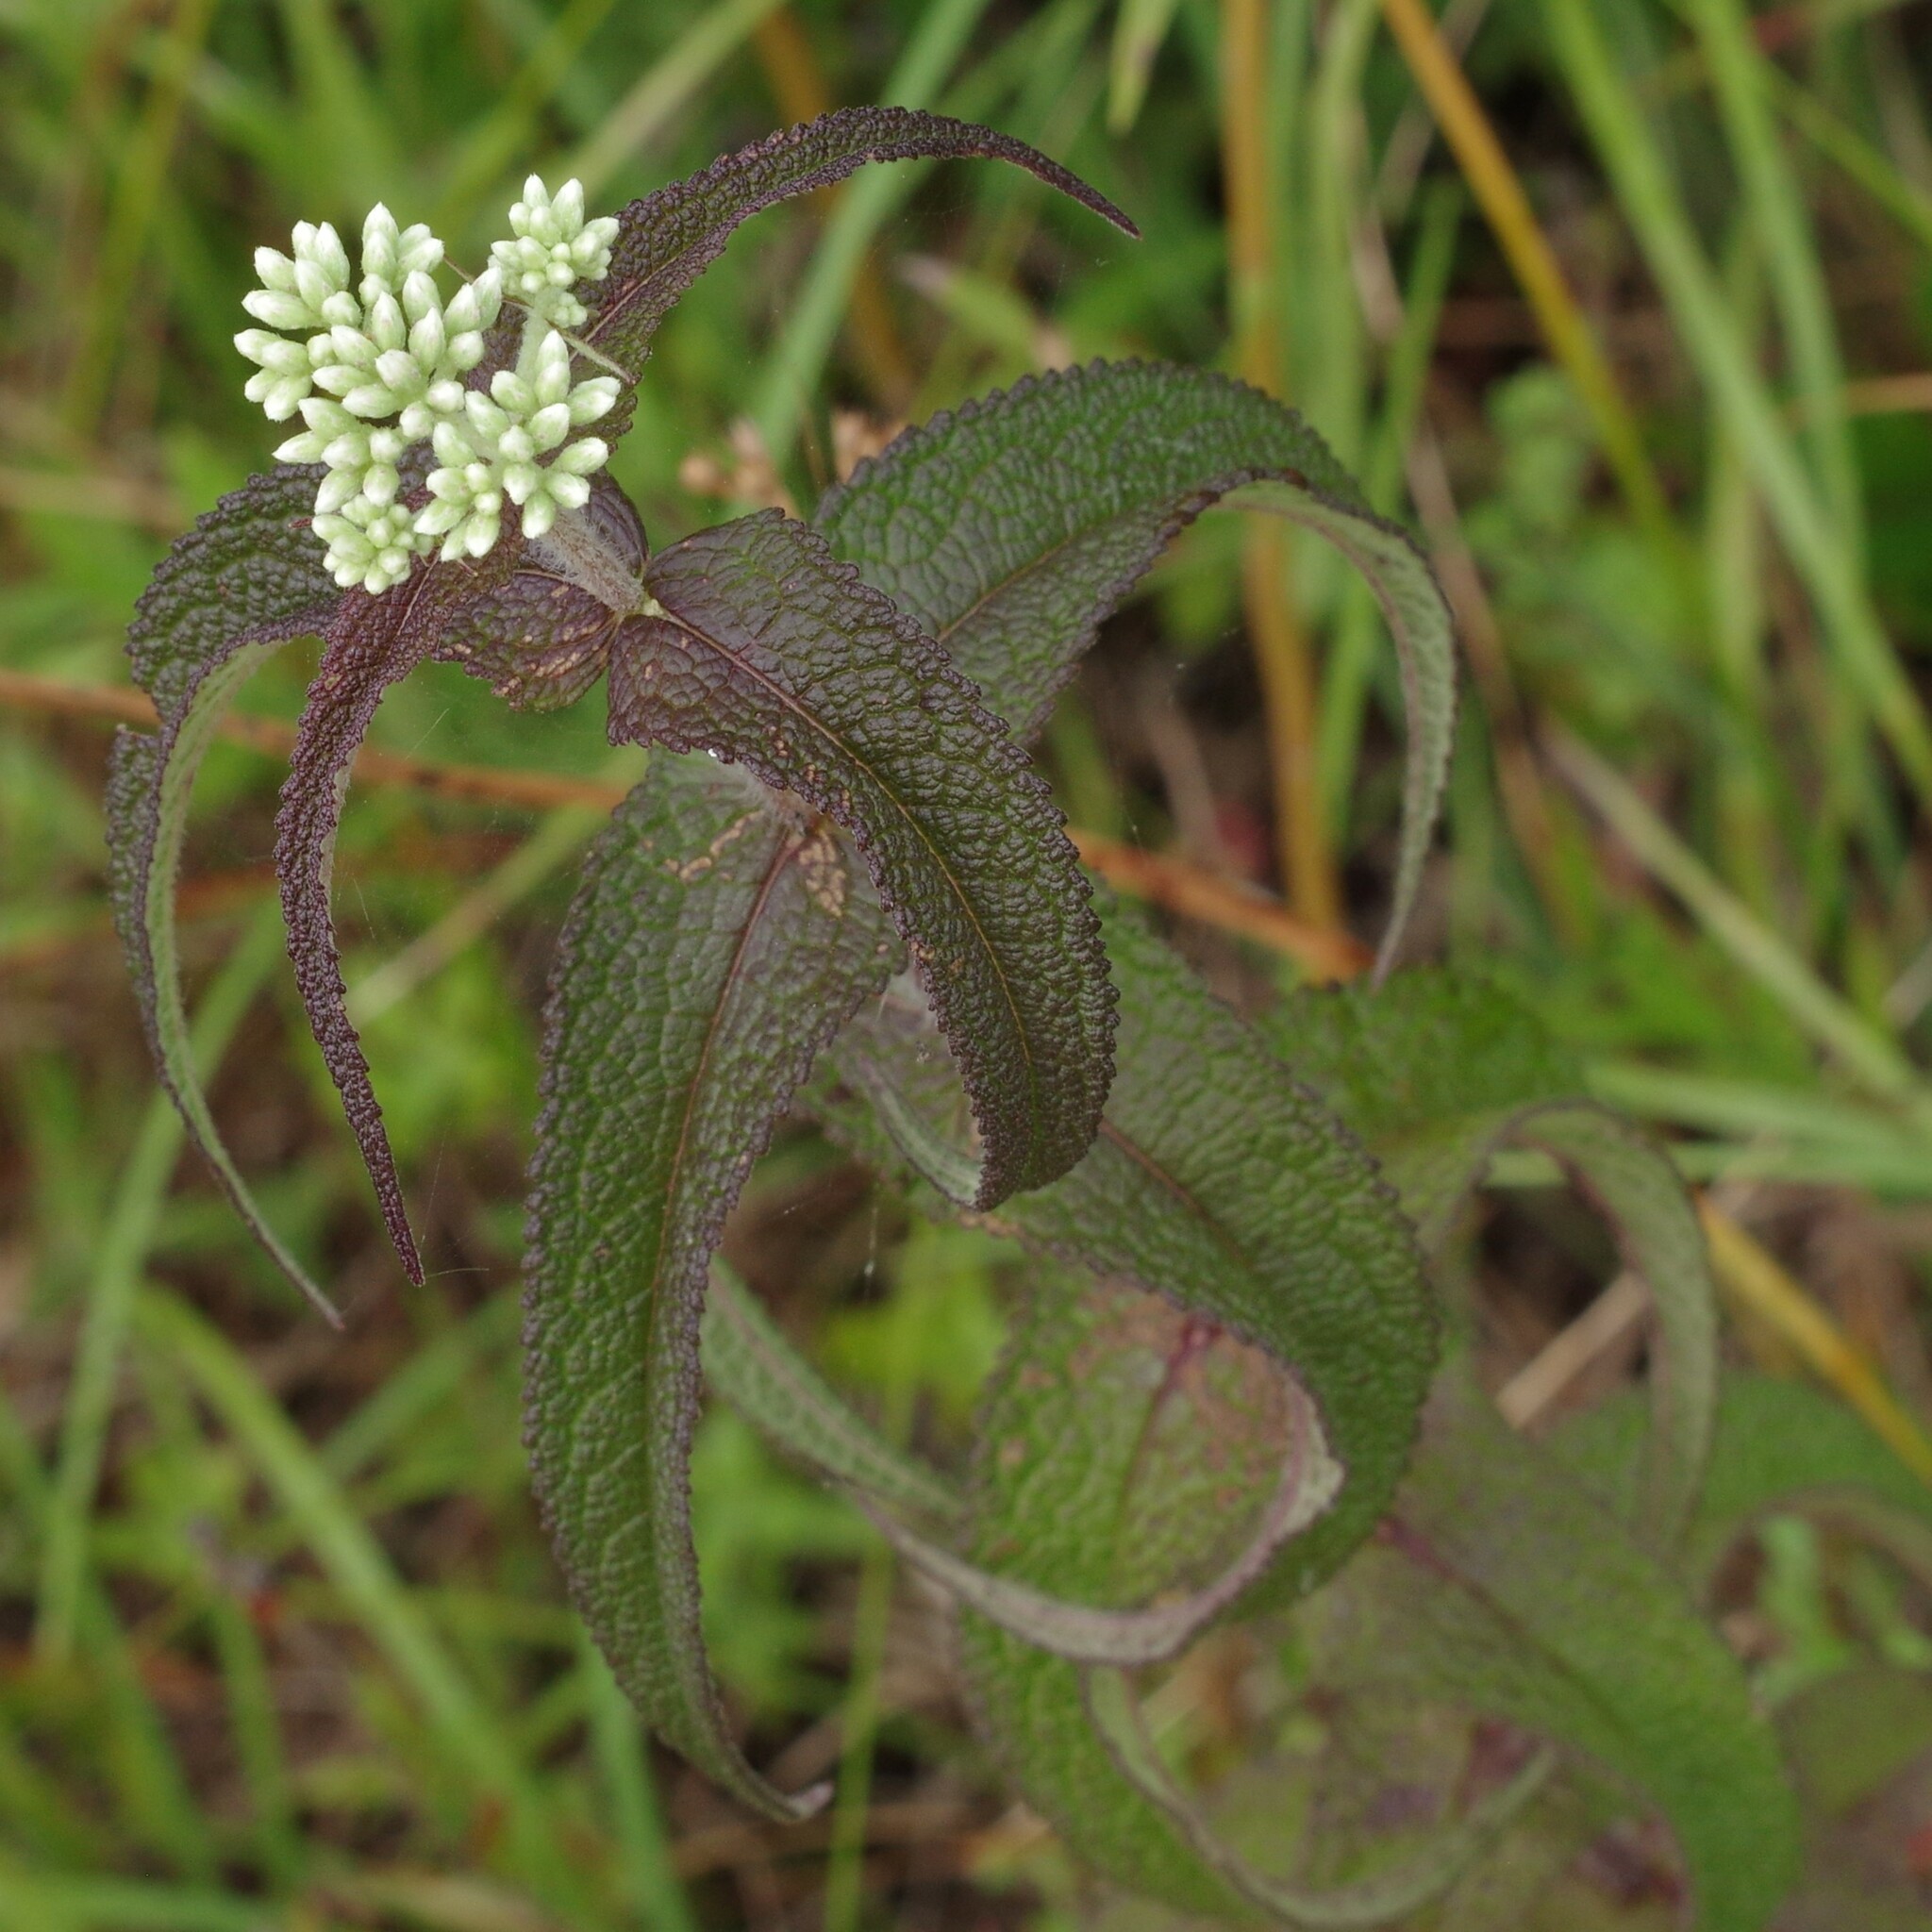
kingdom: Plantae
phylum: Tracheophyta
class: Magnoliopsida
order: Asterales
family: Asteraceae
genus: Eupatorium
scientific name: Eupatorium perfoliatum
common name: Boneset
